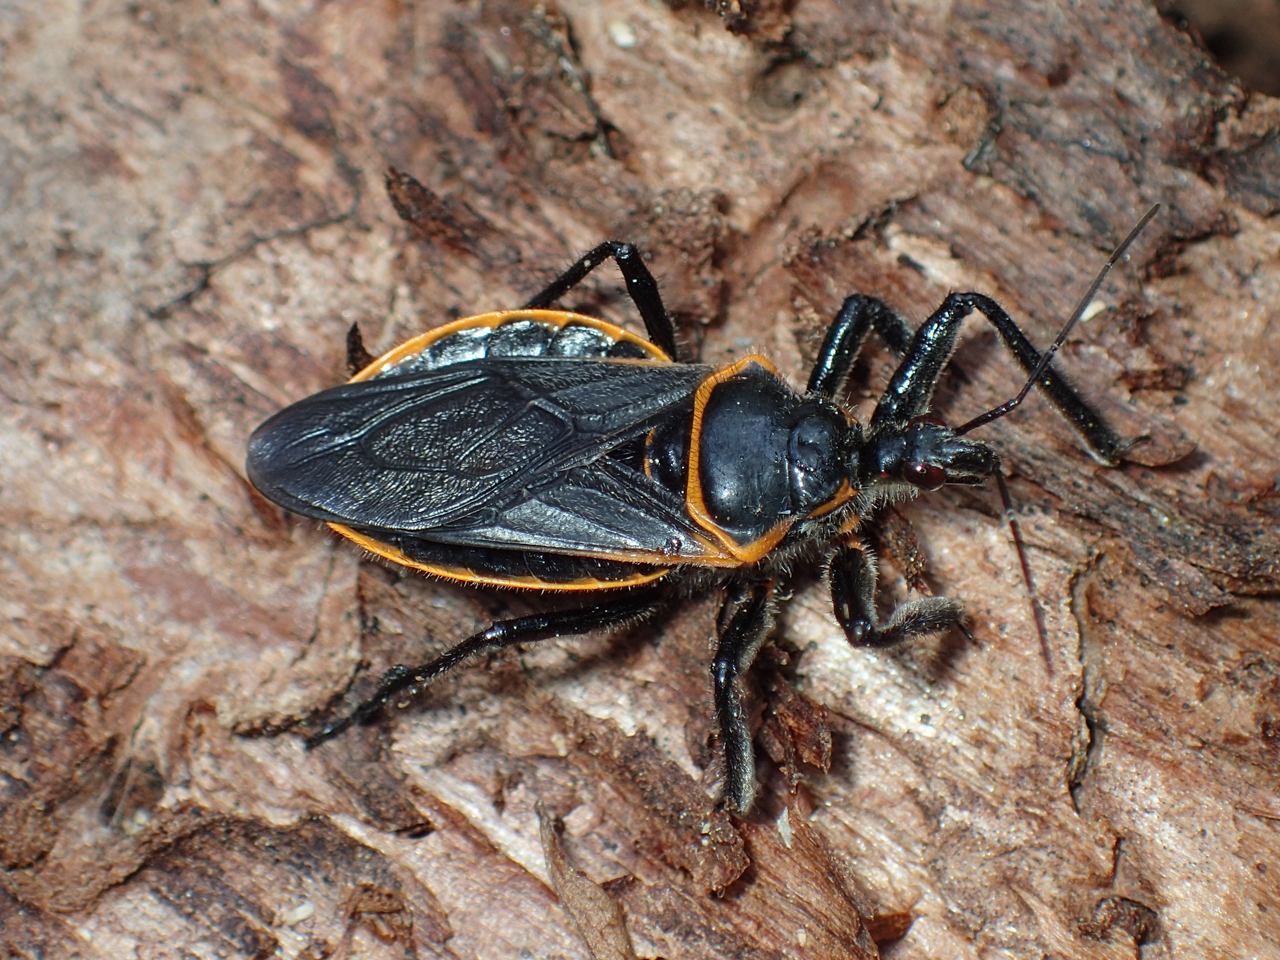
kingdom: Animalia
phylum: Arthropoda
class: Insecta
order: Hemiptera
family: Reduviidae
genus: Apiomerus
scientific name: Apiomerus crassipes
